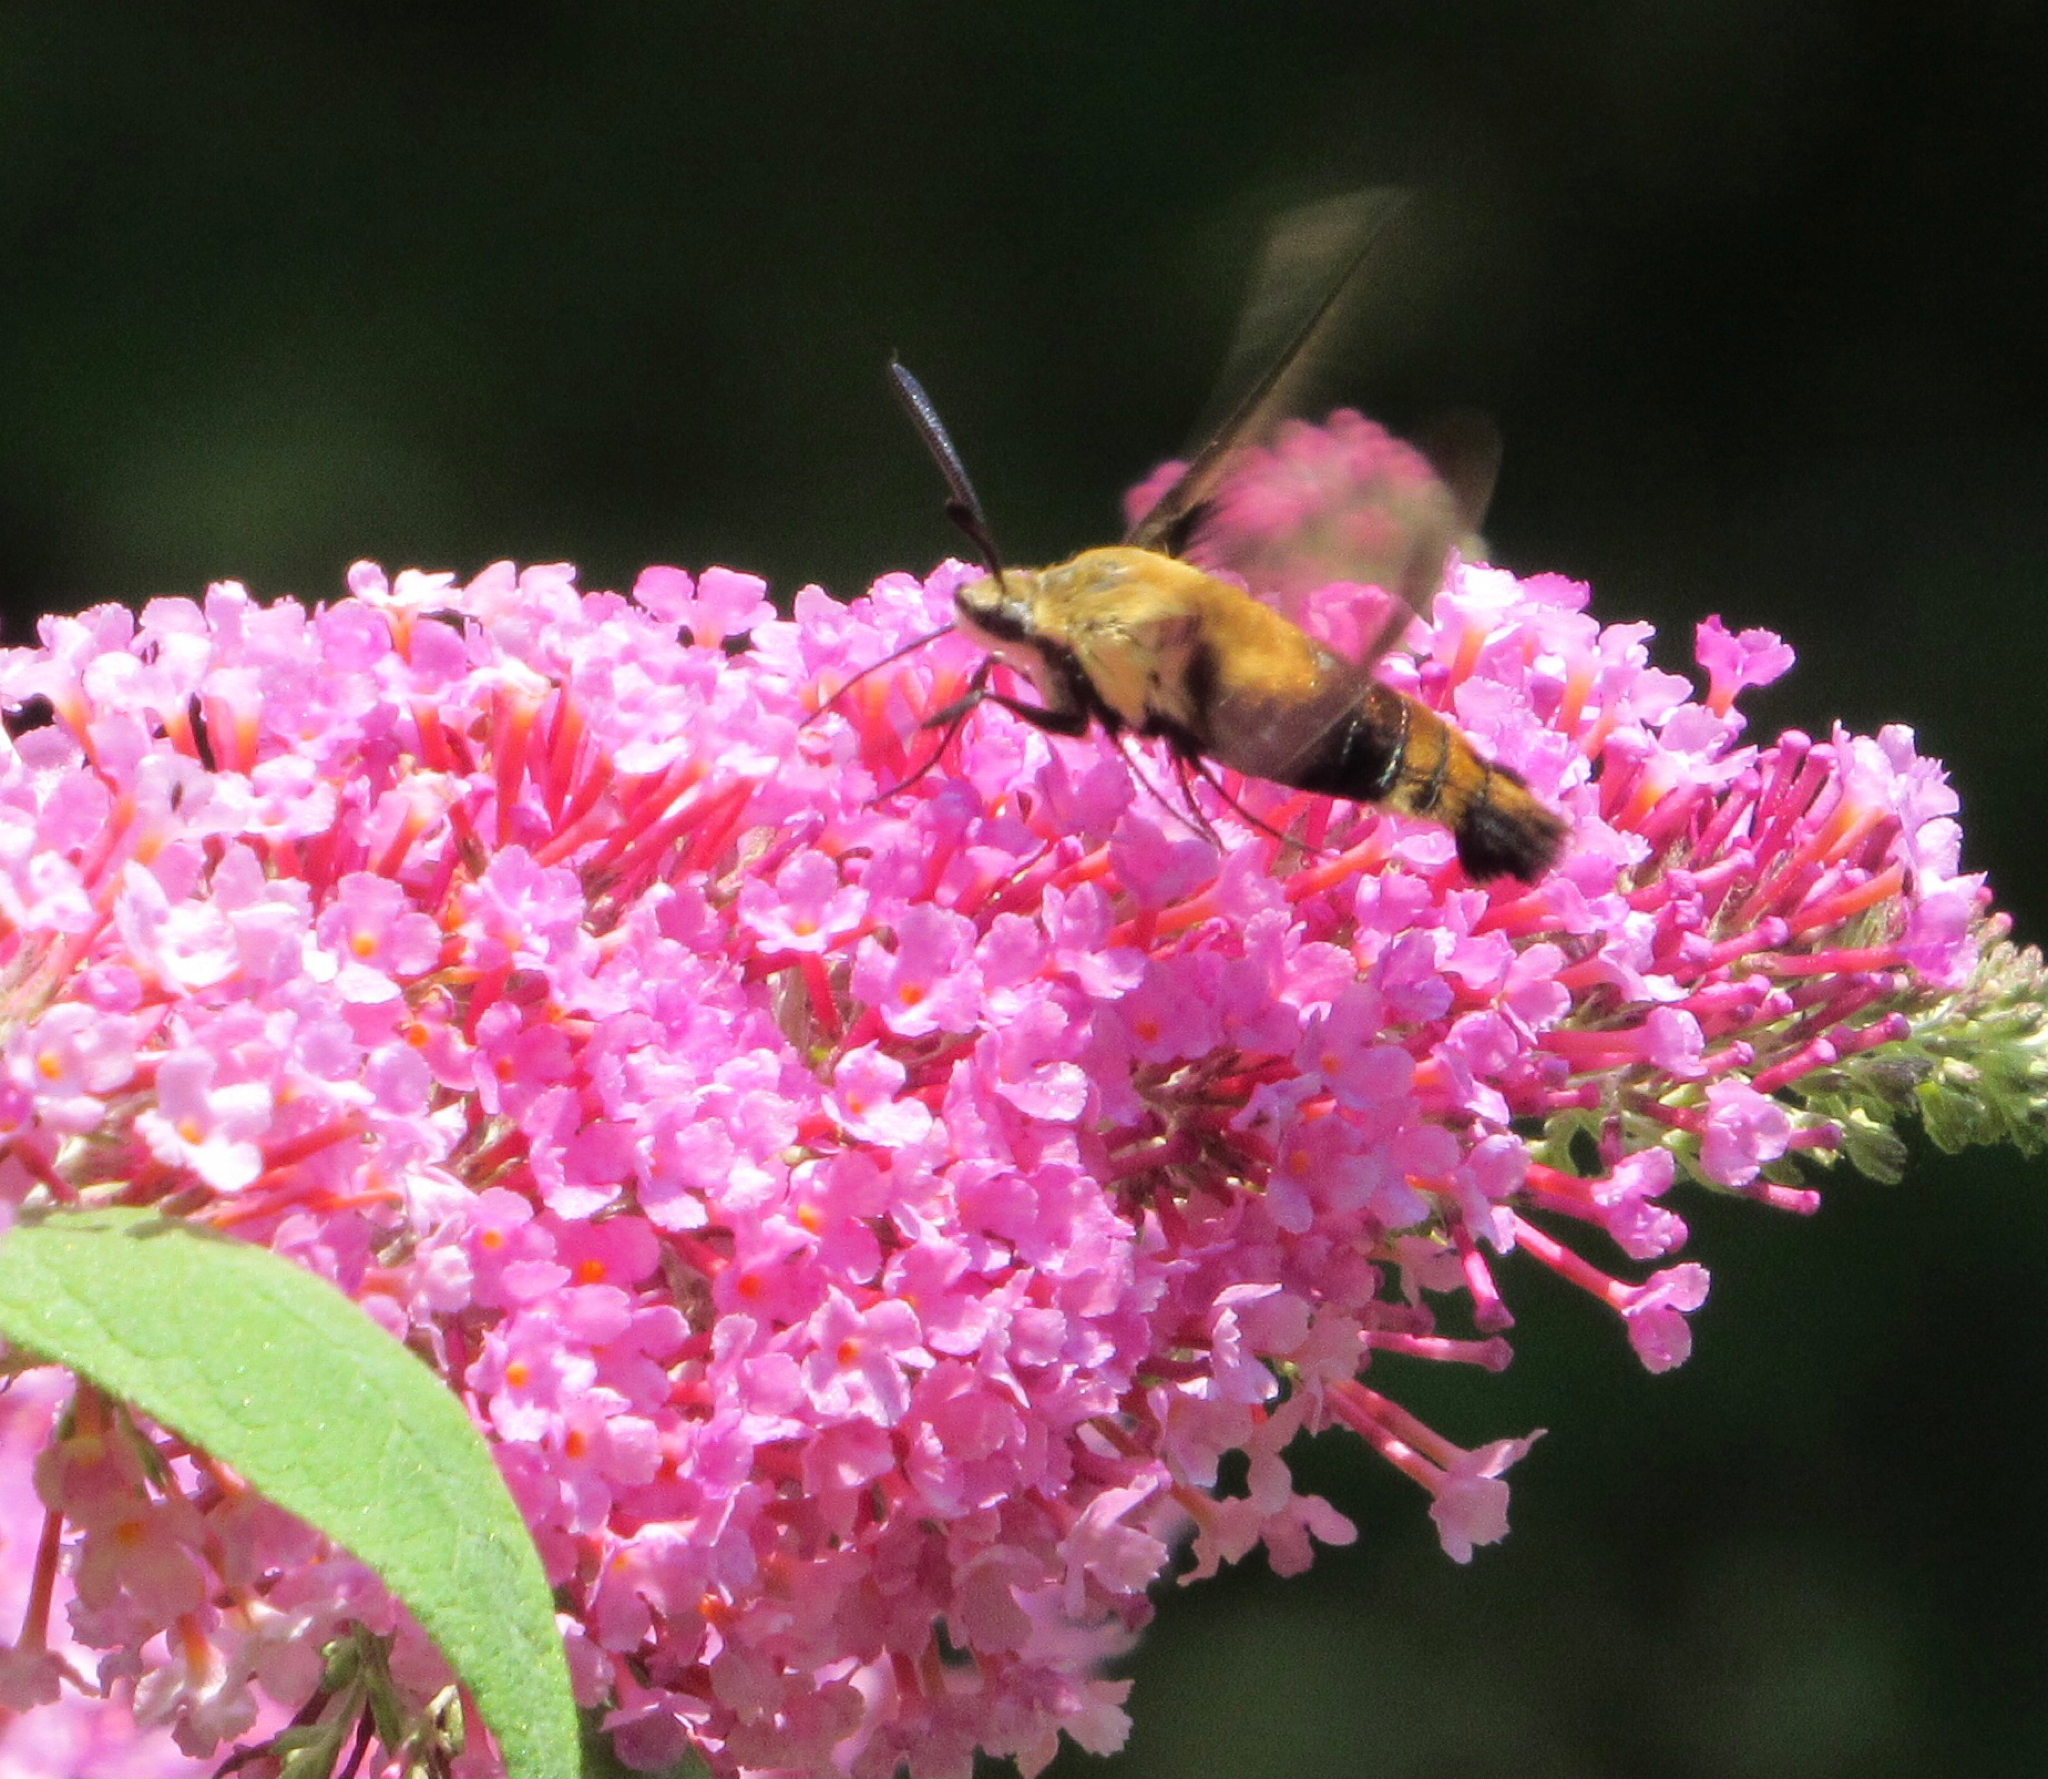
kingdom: Animalia
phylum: Arthropoda
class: Insecta
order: Lepidoptera
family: Sphingidae
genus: Hemaris
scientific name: Hemaris diffinis
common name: Bumblebee moth
